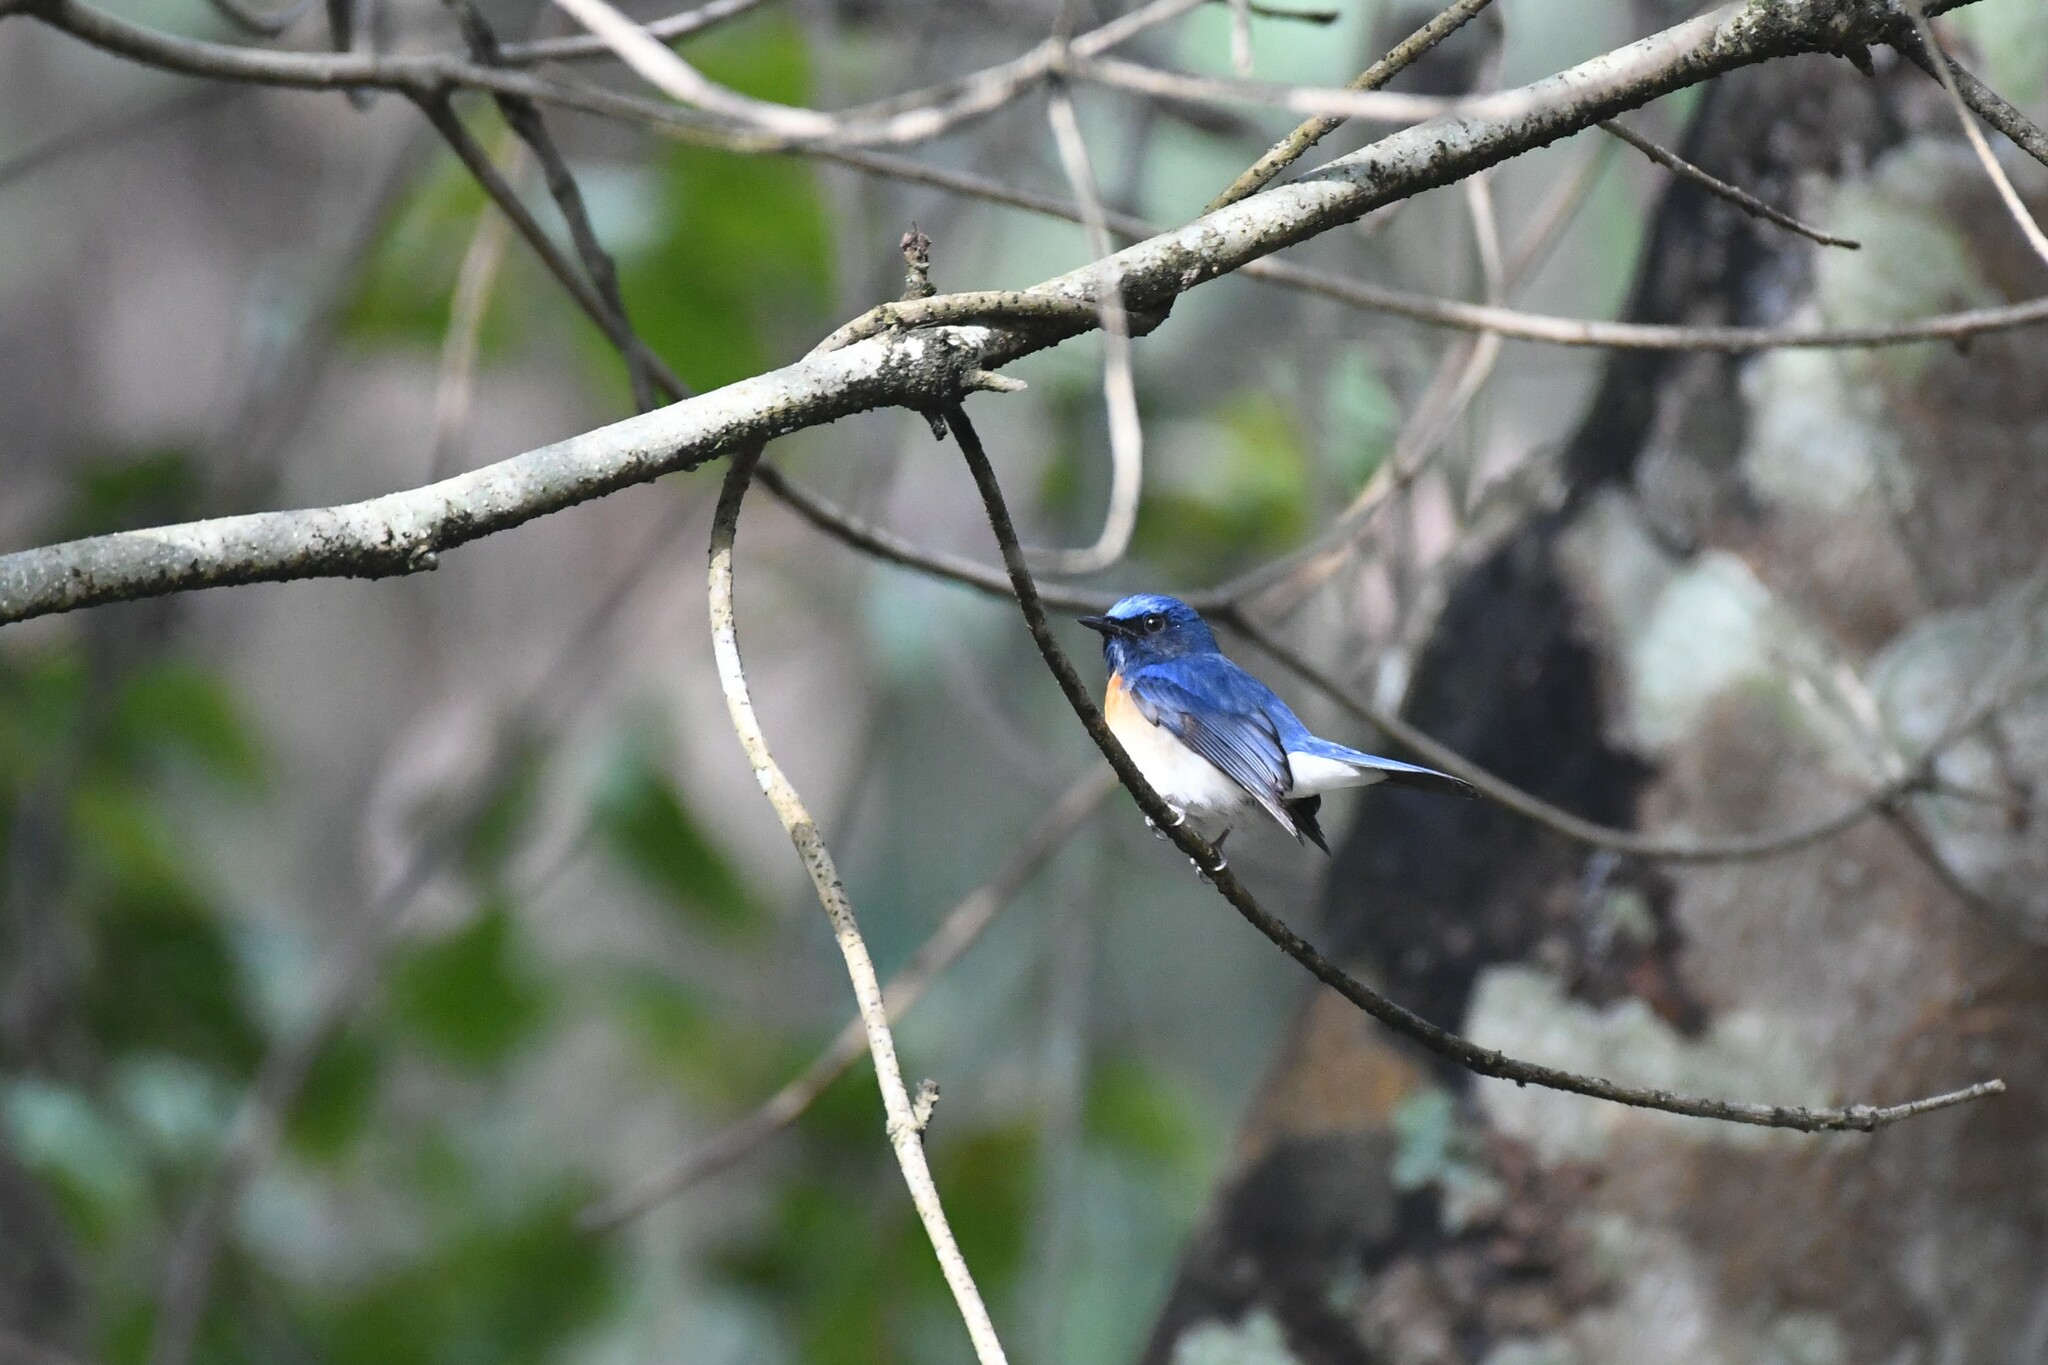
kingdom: Animalia
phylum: Chordata
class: Aves
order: Passeriformes
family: Muscicapidae
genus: Cyornis
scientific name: Cyornis rubeculoides
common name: Blue-throated blue flycatcher
